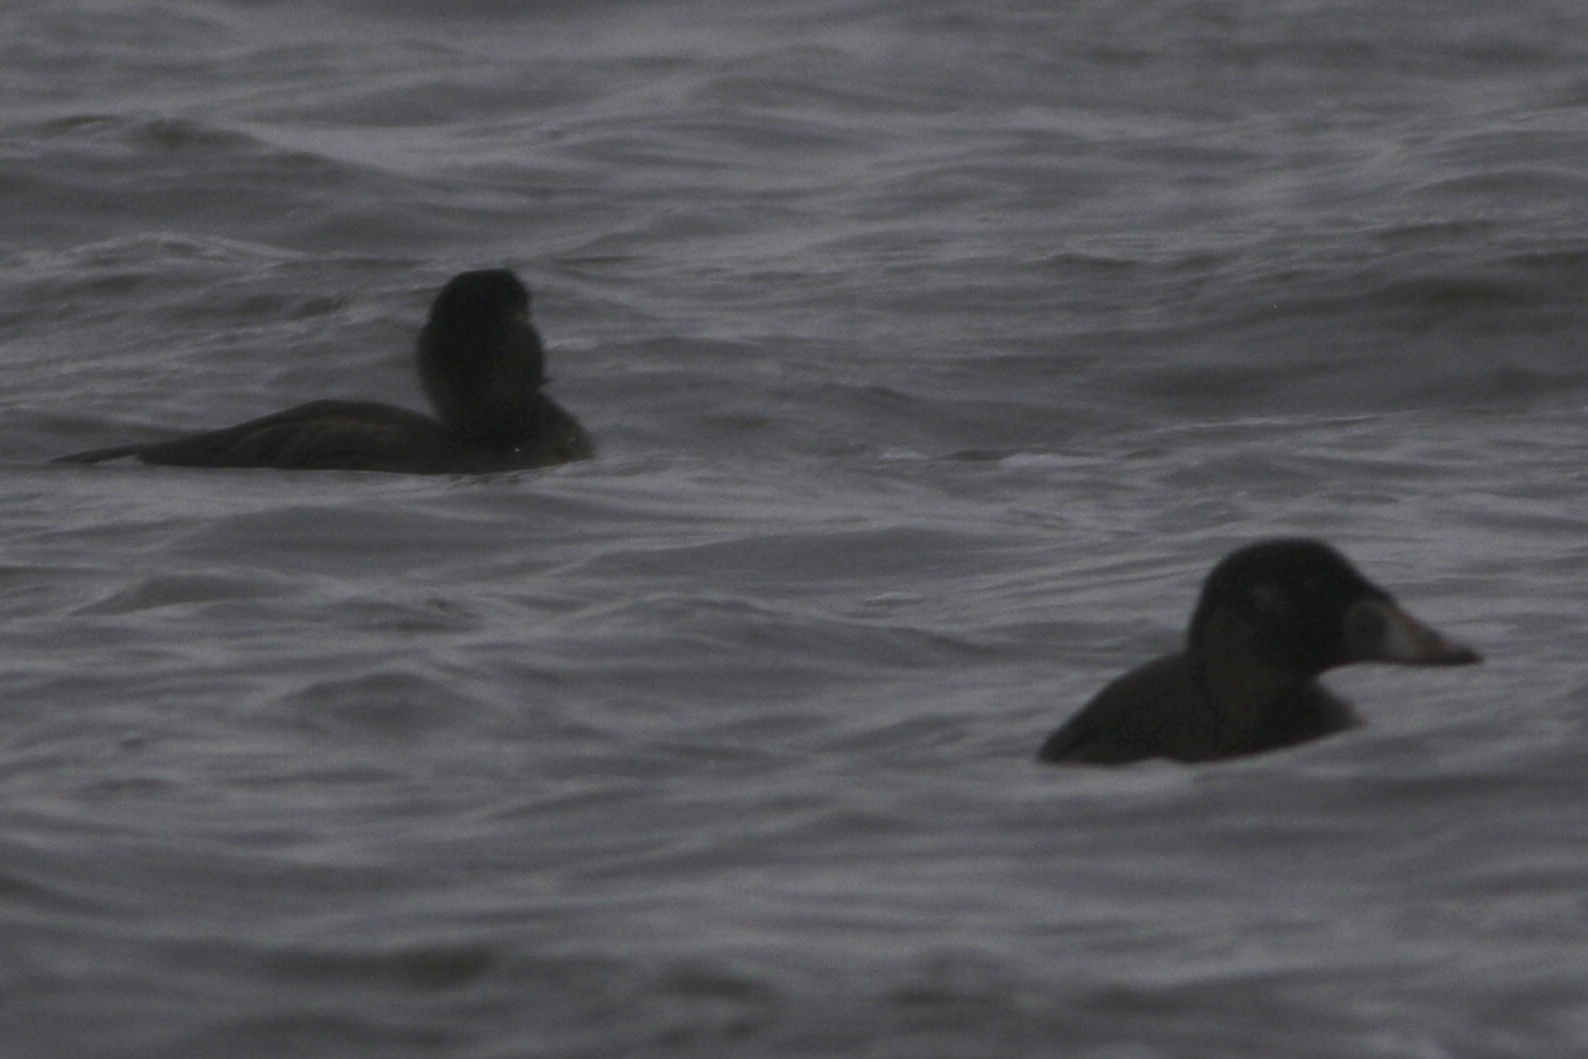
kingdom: Animalia
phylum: Chordata
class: Aves
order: Anseriformes
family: Anatidae
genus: Melanitta
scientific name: Melanitta perspicillata
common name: Surf scoter
